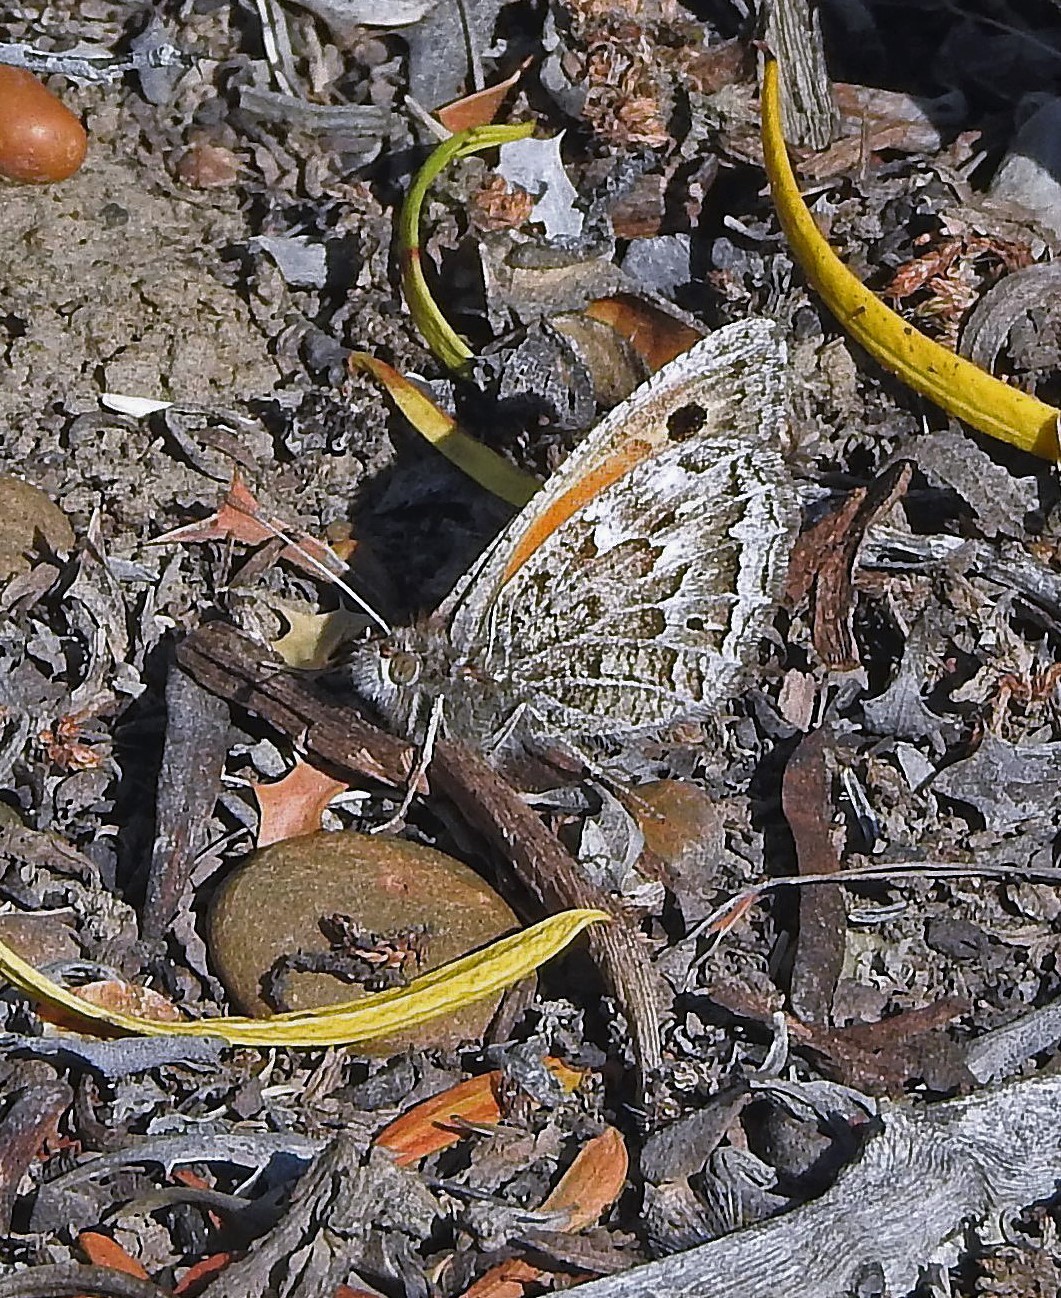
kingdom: Animalia
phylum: Arthropoda
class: Insecta
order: Lepidoptera
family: Nymphalidae
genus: Argyrophorus
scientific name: Argyrophorus
